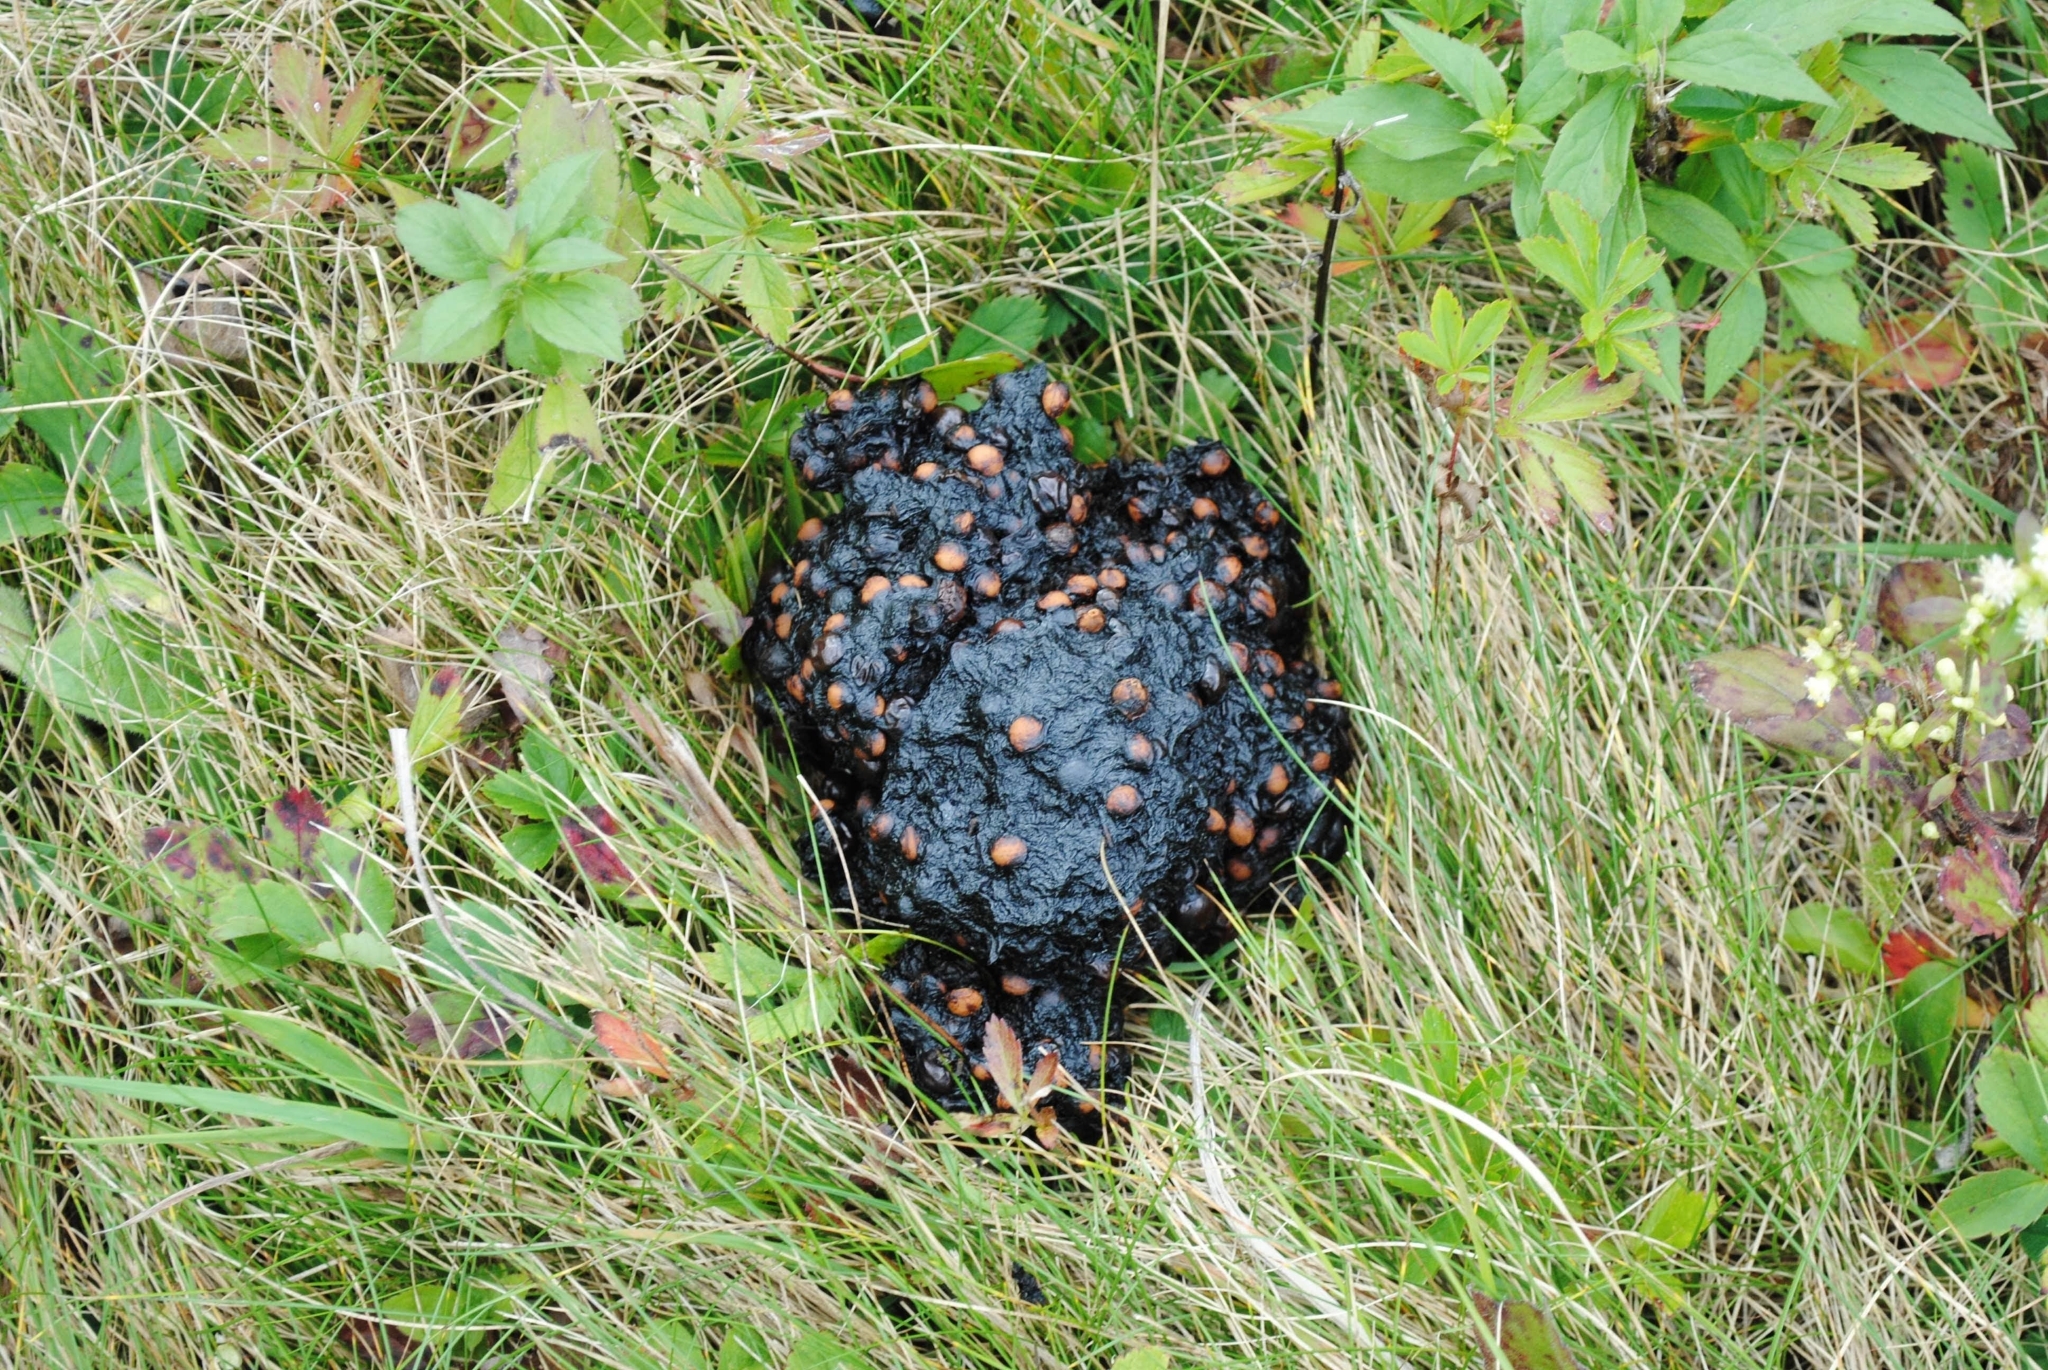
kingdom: Animalia
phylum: Chordata
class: Mammalia
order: Carnivora
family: Ursidae
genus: Ursus
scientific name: Ursus americanus
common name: American black bear
